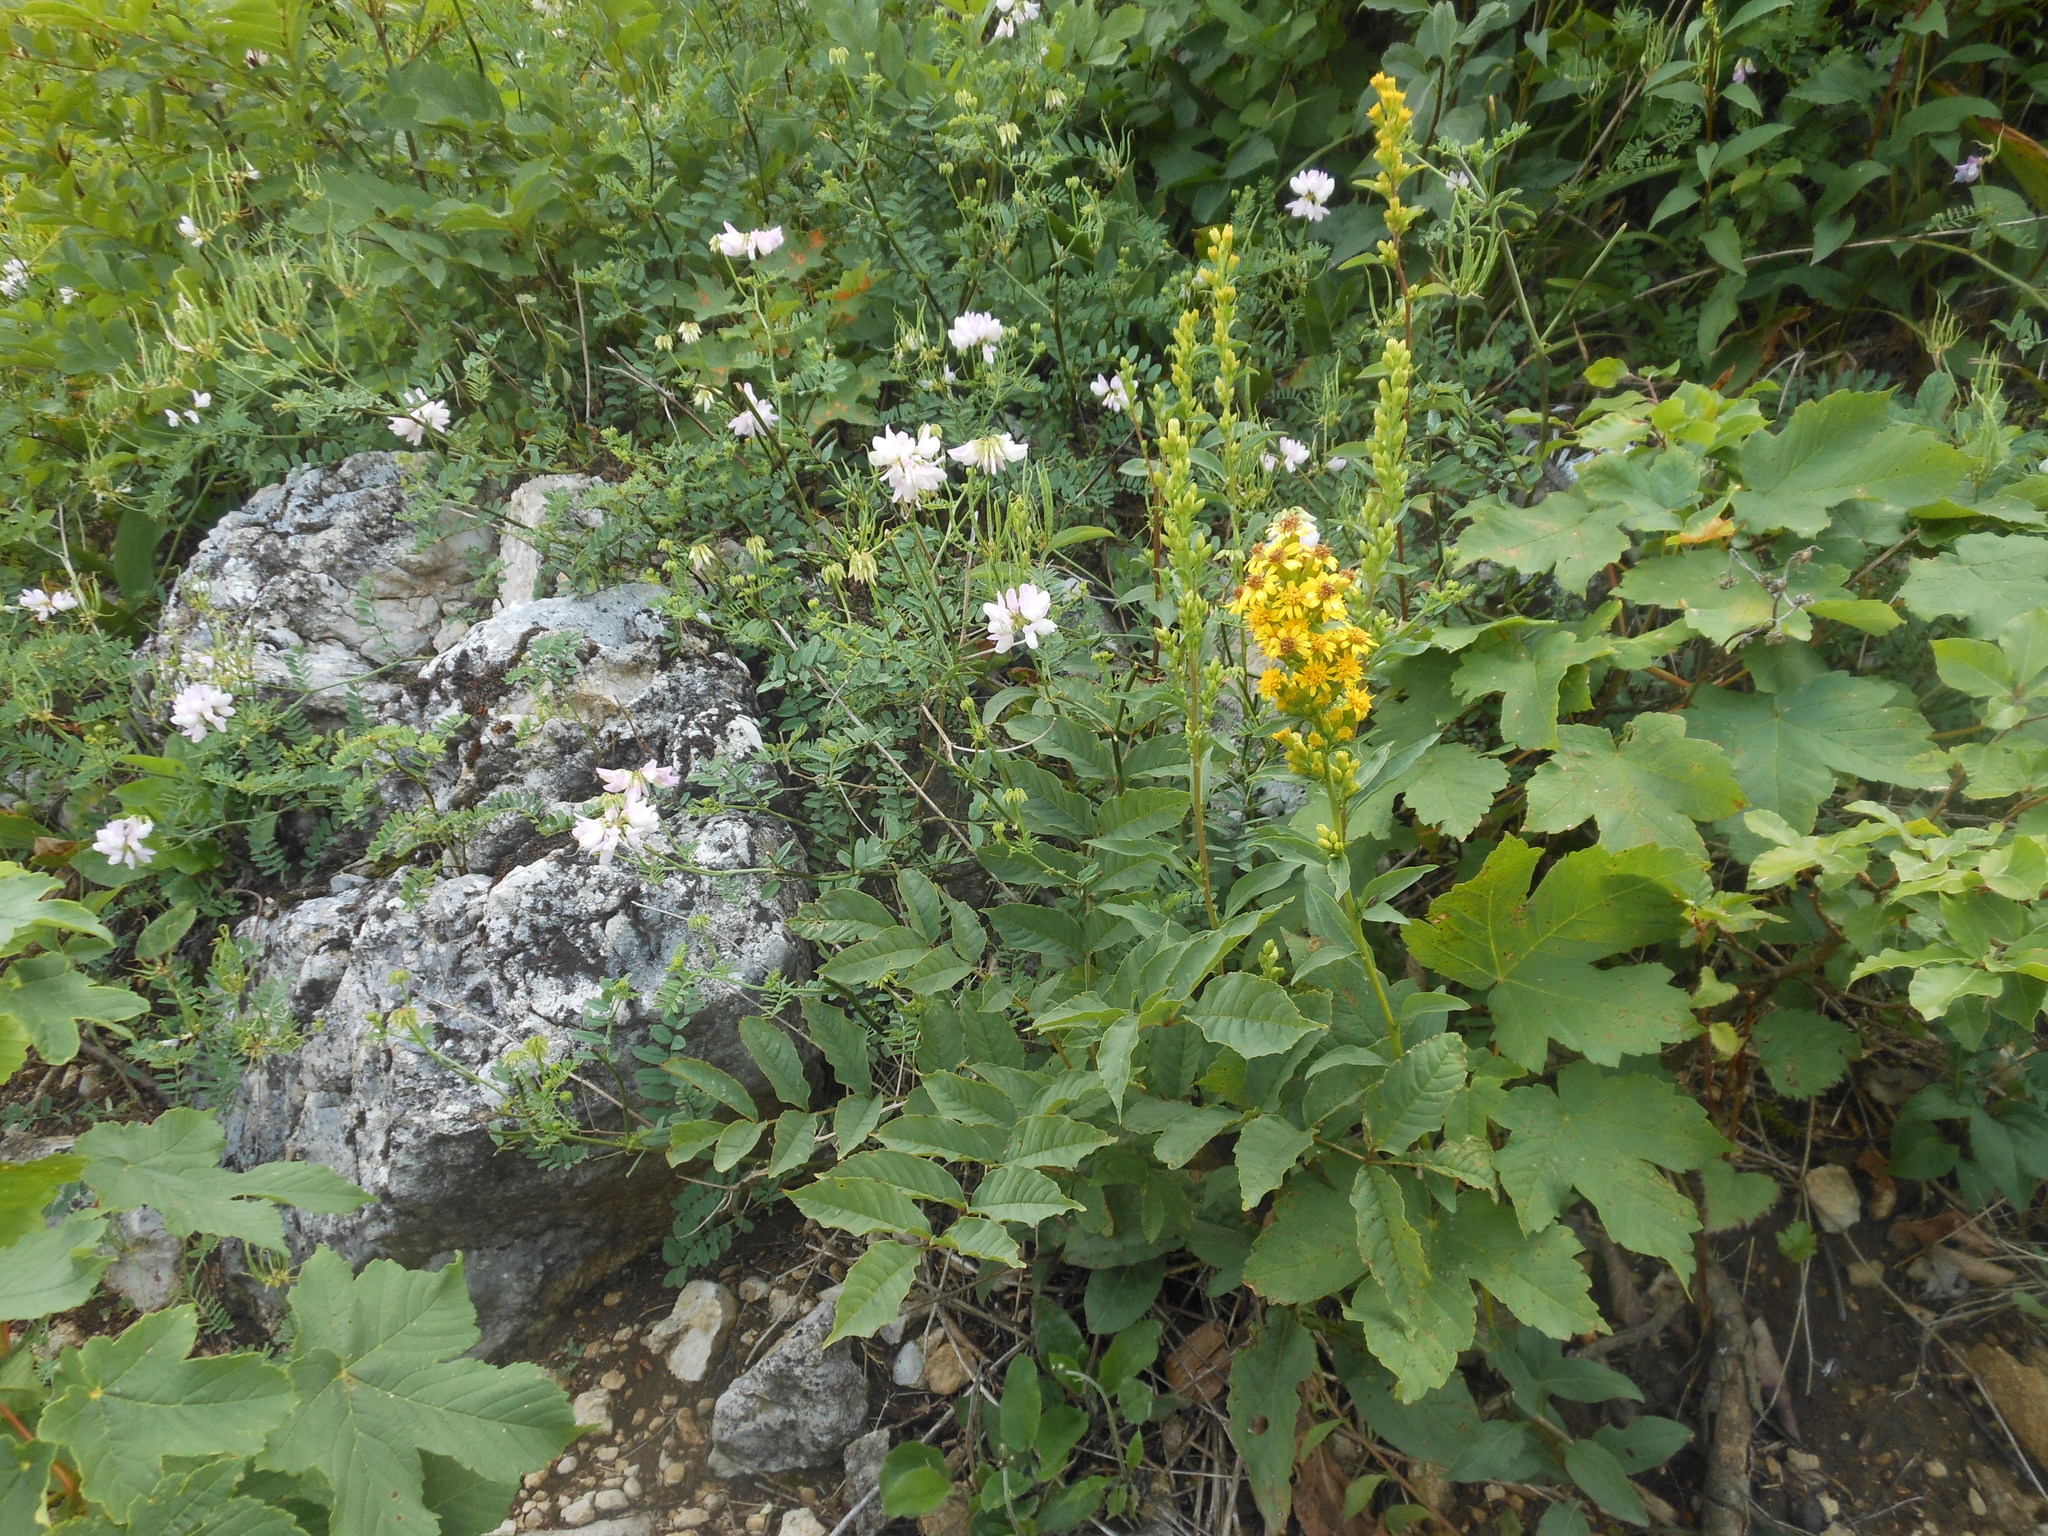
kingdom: Plantae
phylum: Tracheophyta
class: Magnoliopsida
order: Asterales
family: Asteraceae
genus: Solidago
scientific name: Solidago virgaurea
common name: Goldenrod
